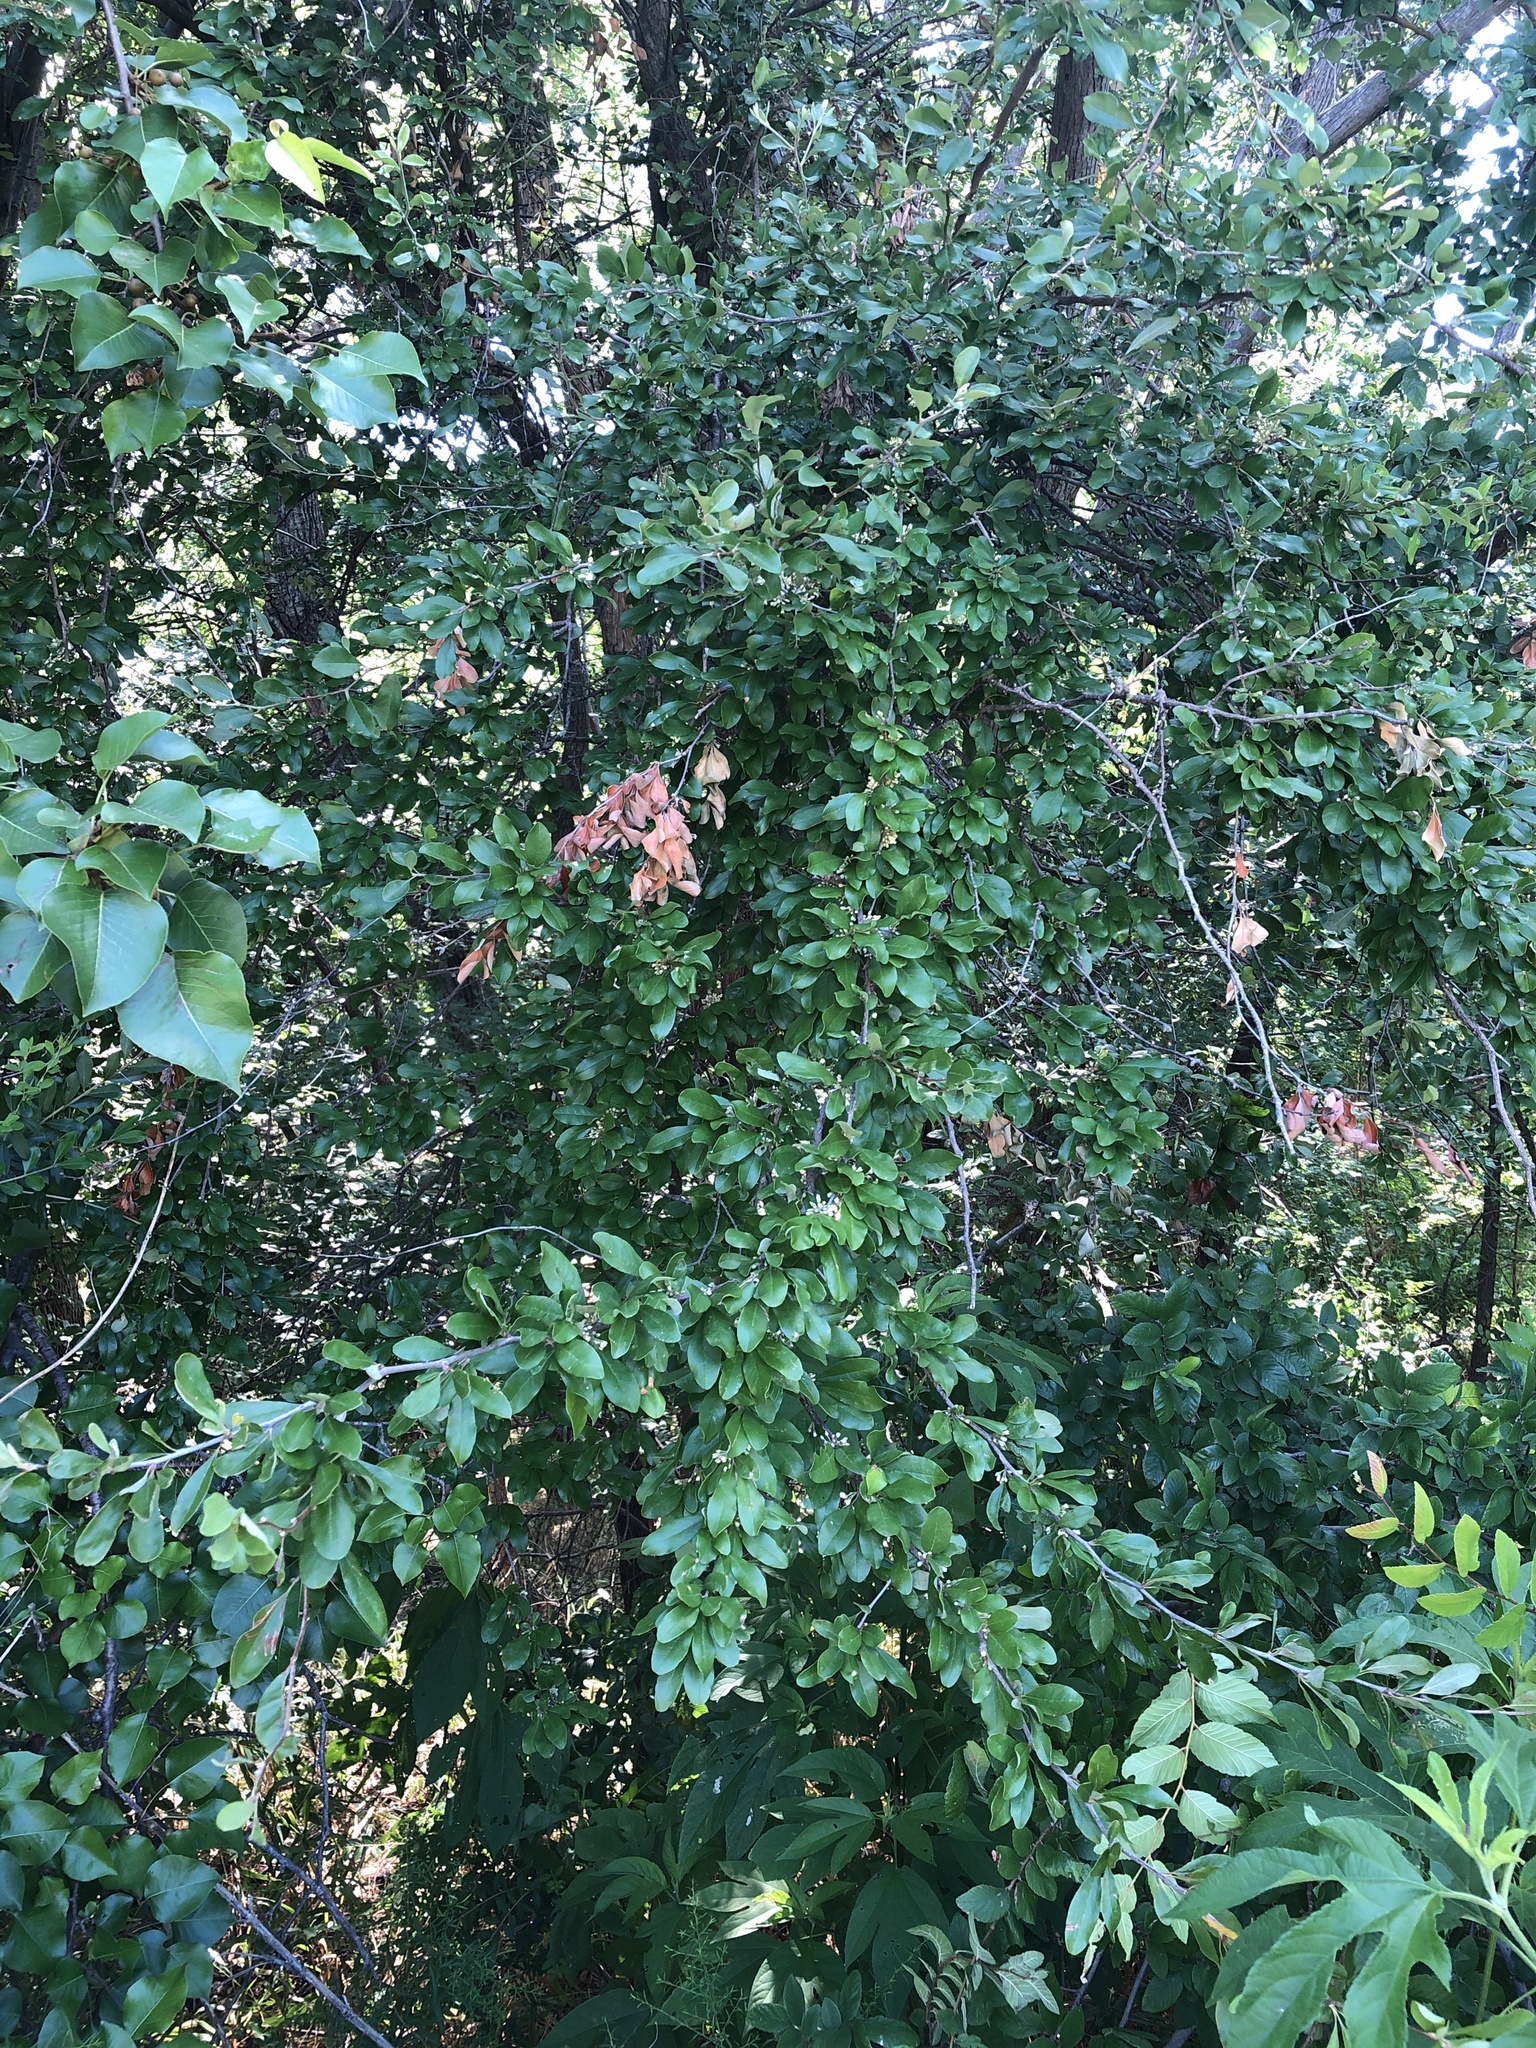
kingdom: Plantae
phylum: Tracheophyta
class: Magnoliopsida
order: Ericales
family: Sapotaceae
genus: Sideroxylon
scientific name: Sideroxylon lanuginosum
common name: Chittamwood
